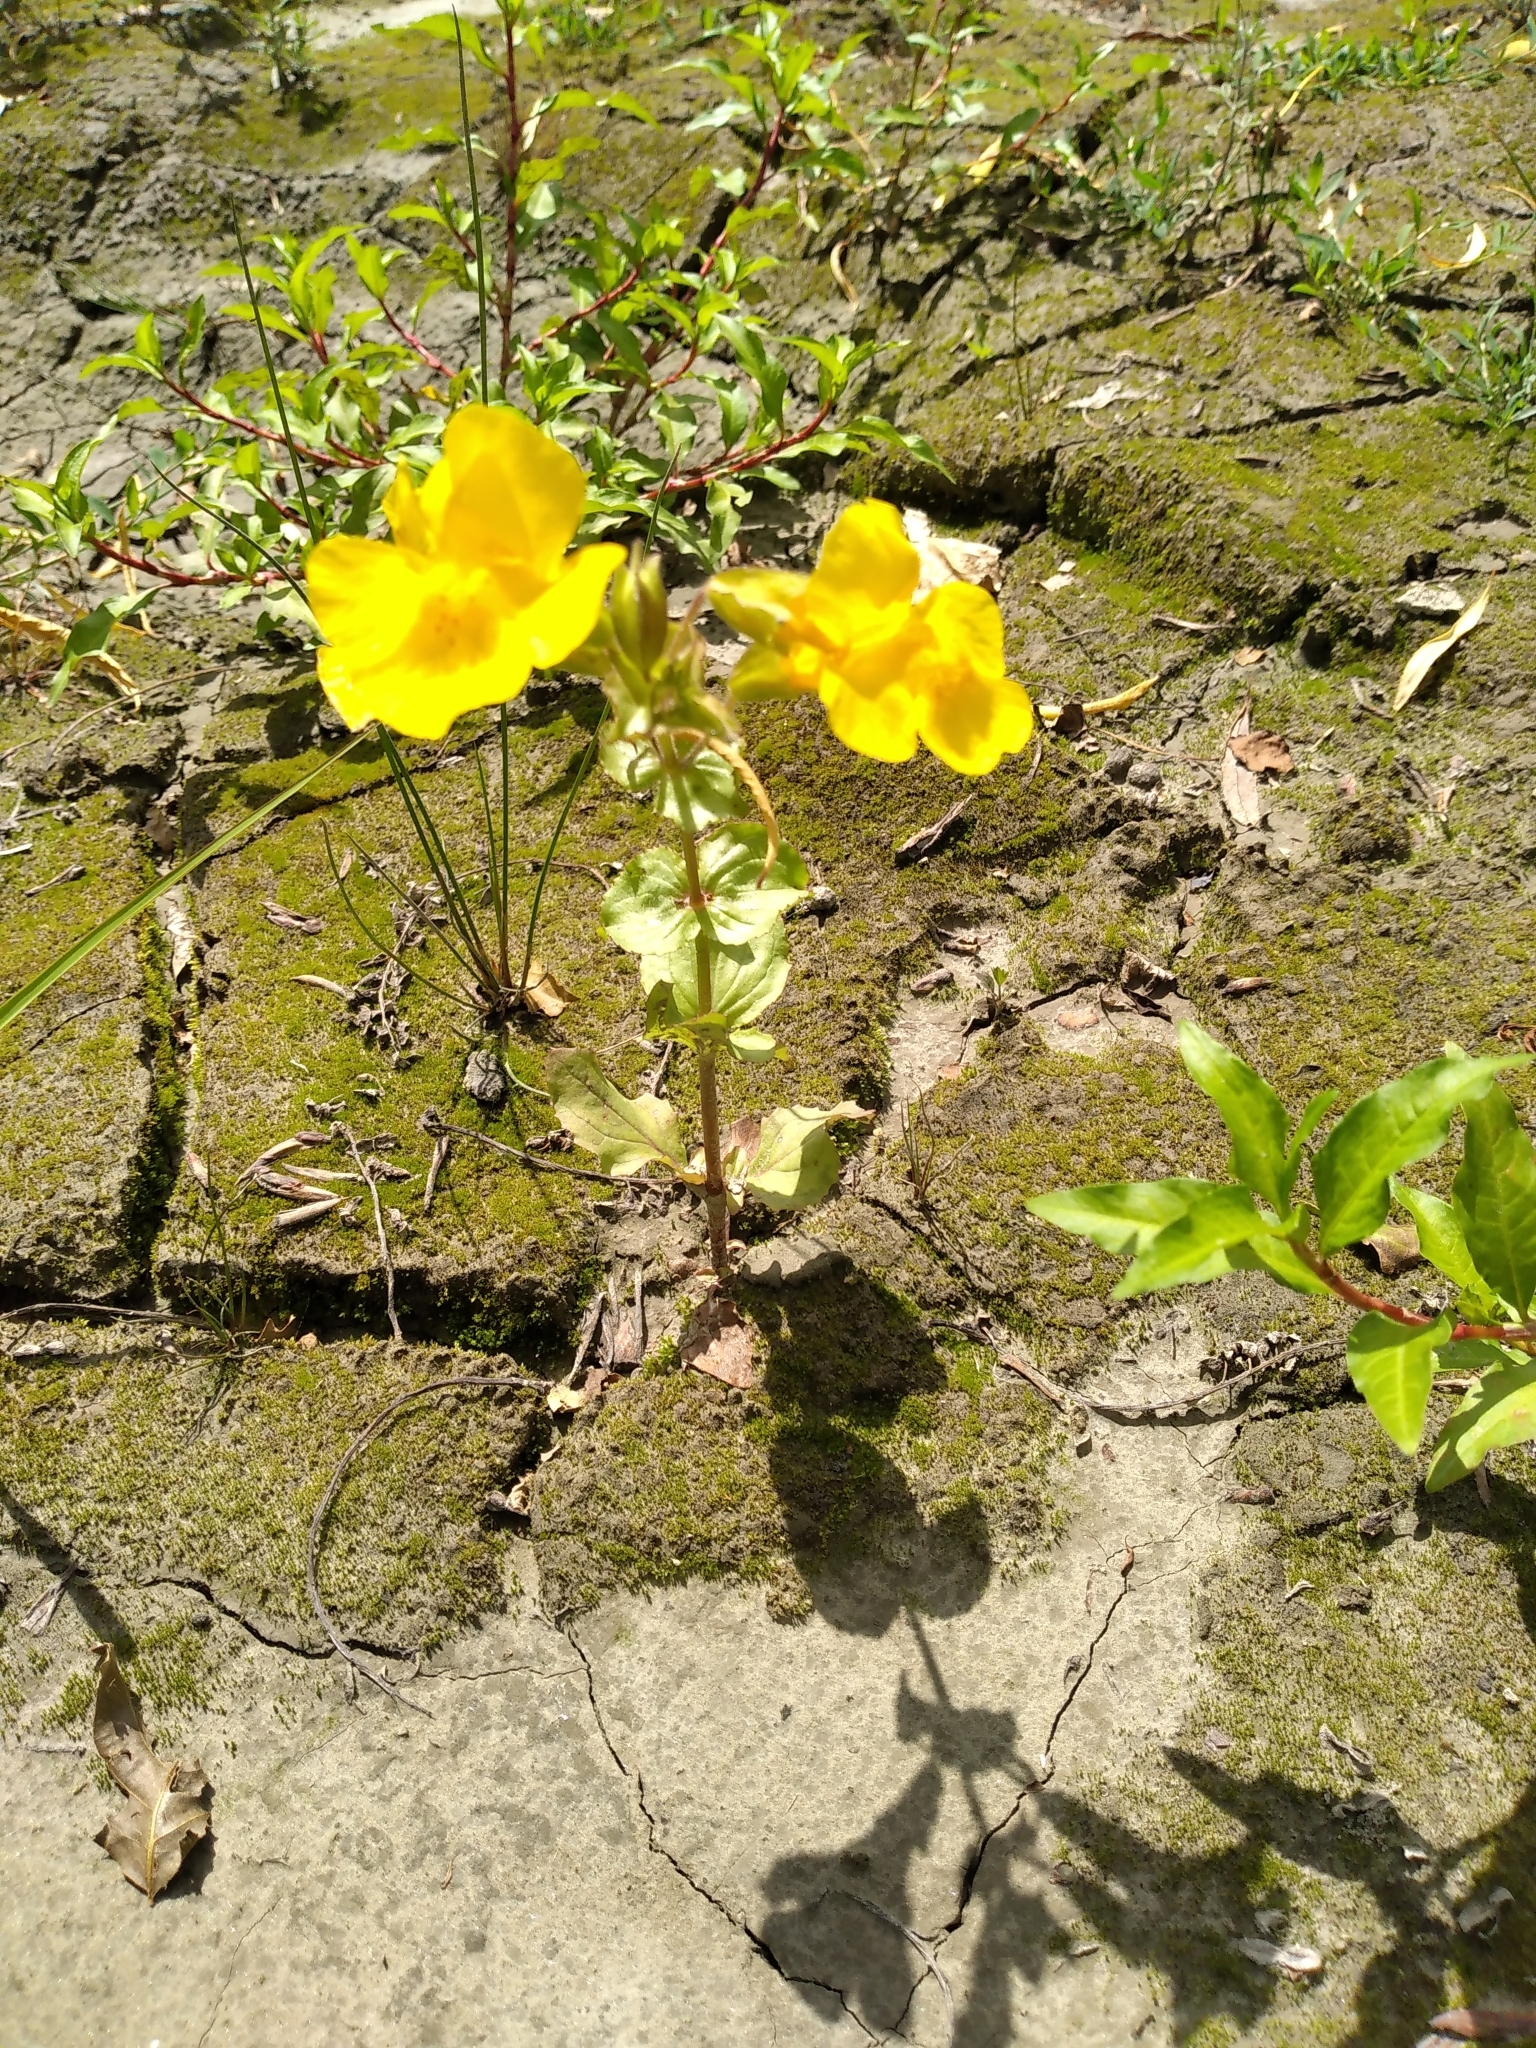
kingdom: Plantae
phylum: Tracheophyta
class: Magnoliopsida
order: Lamiales
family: Phrymaceae
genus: Erythranthe
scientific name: Erythranthe guttata
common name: Monkeyflower
